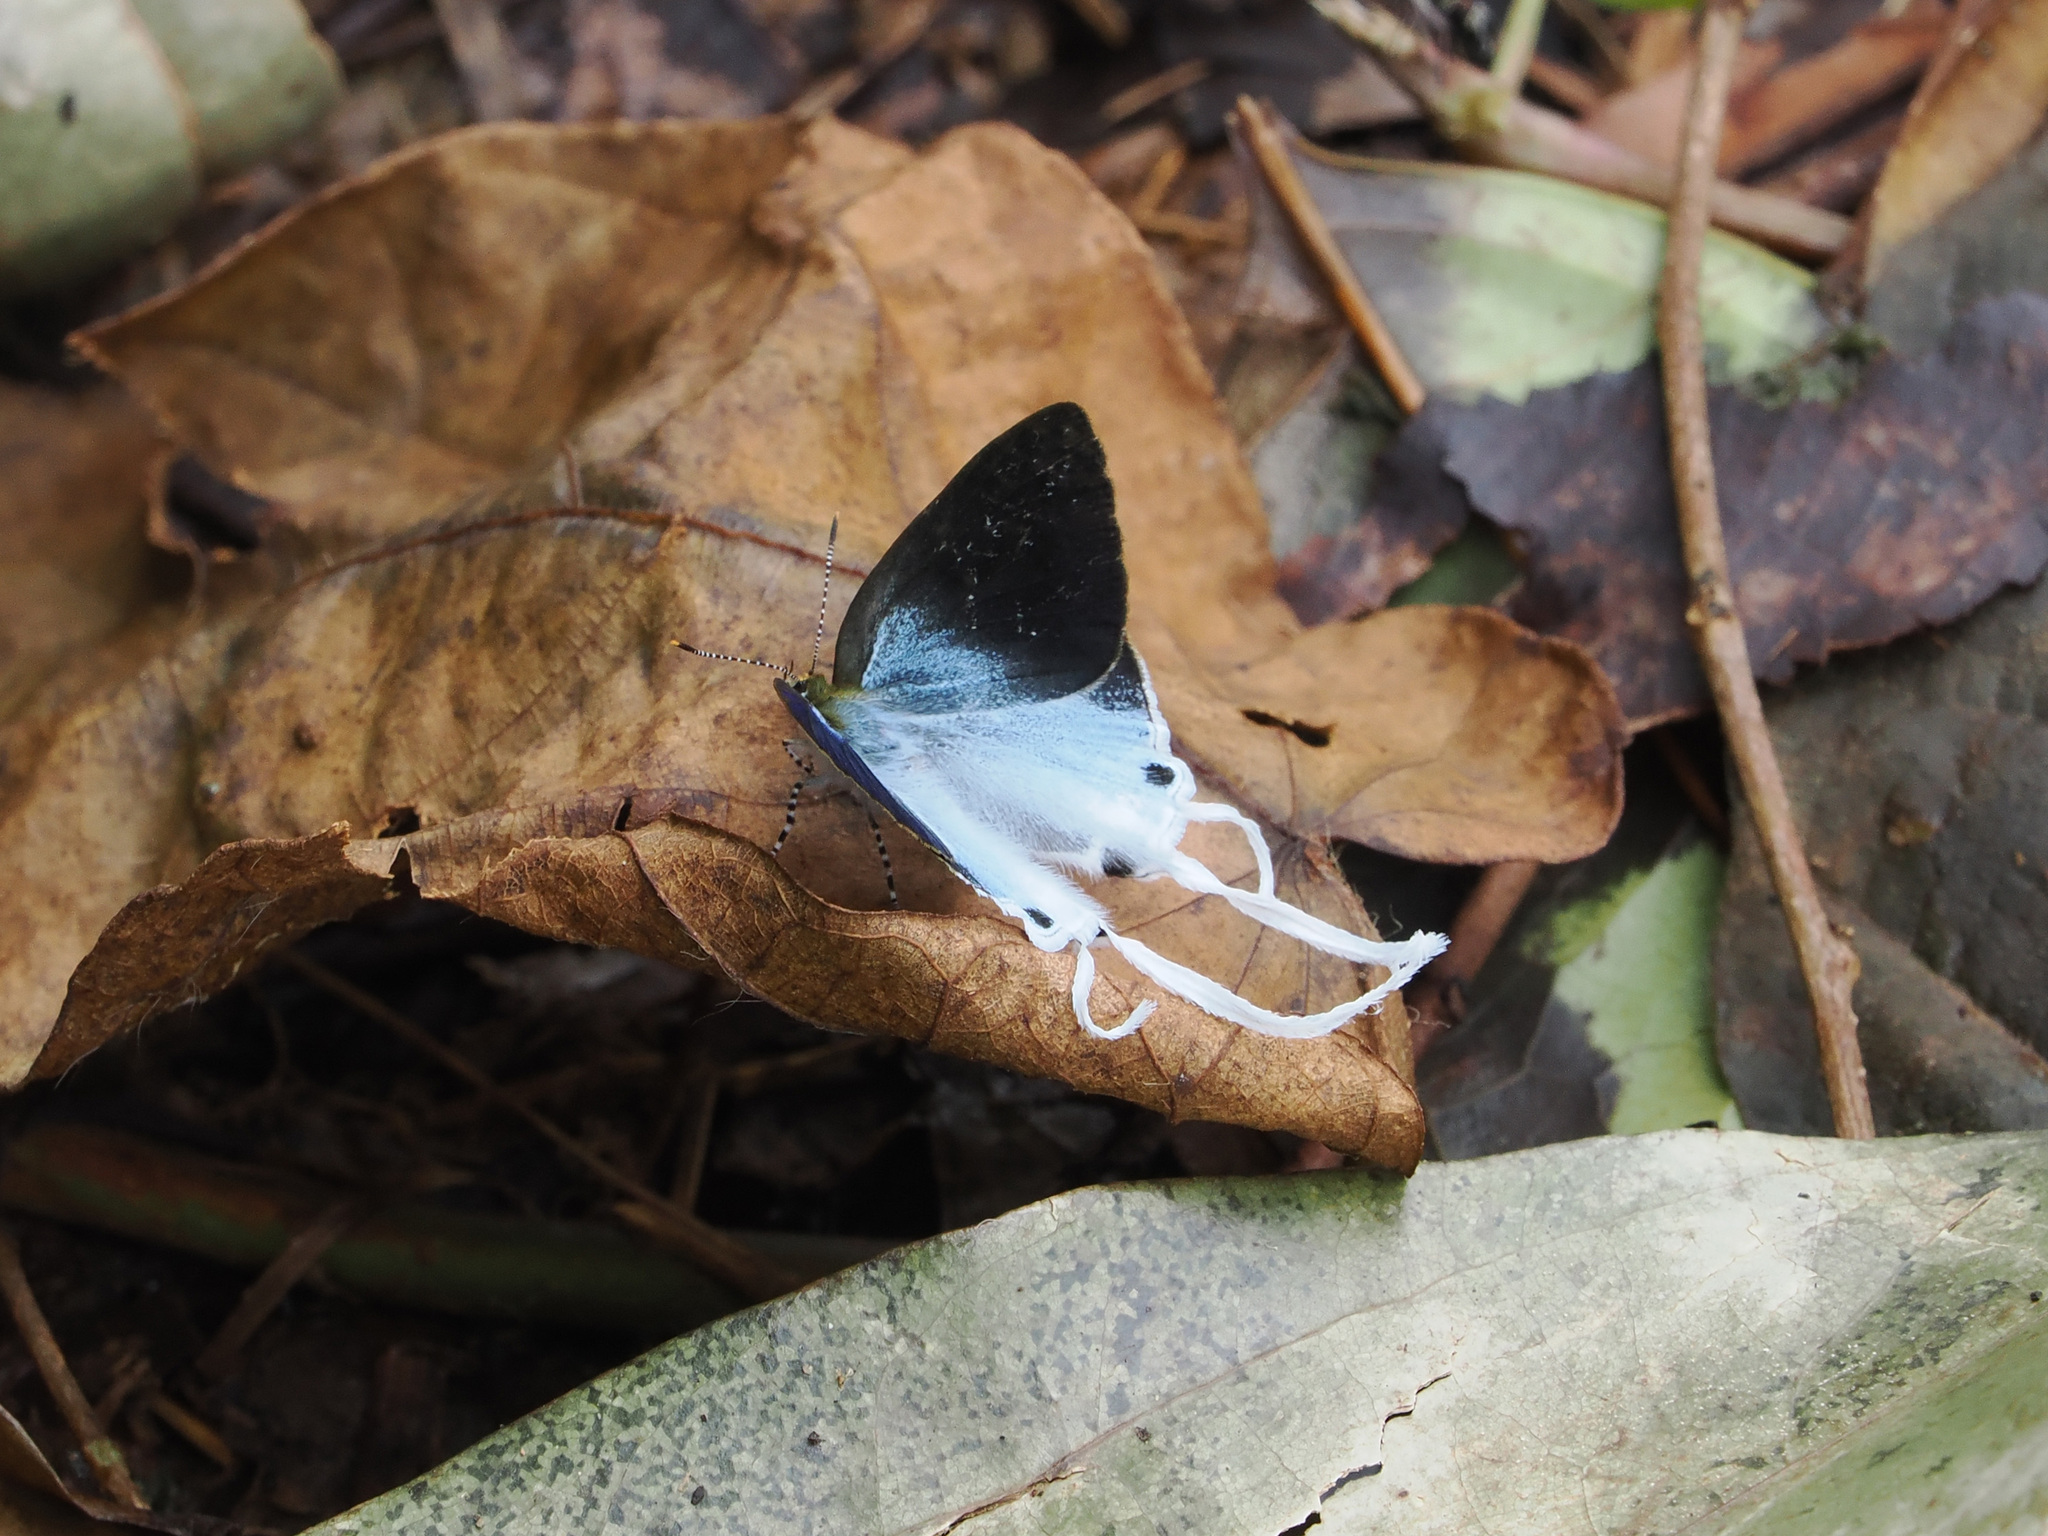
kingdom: Animalia
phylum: Arthropoda
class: Insecta
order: Lepidoptera
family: Lycaenidae
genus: Zeltus
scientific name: Zeltus amasa
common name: Fluffy tit
